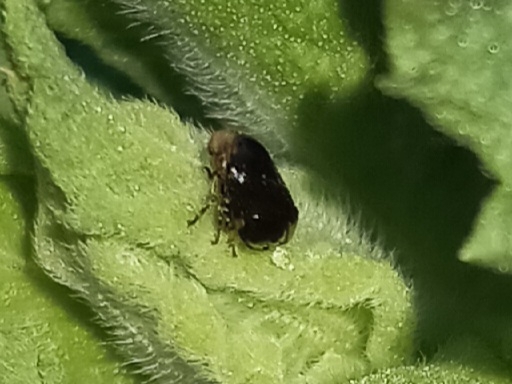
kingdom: Animalia
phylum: Arthropoda
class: Insecta
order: Hemiptera
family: Clastopteridae
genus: Clastoptera
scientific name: Clastoptera xanthocephala
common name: Sunflower spittlebug
